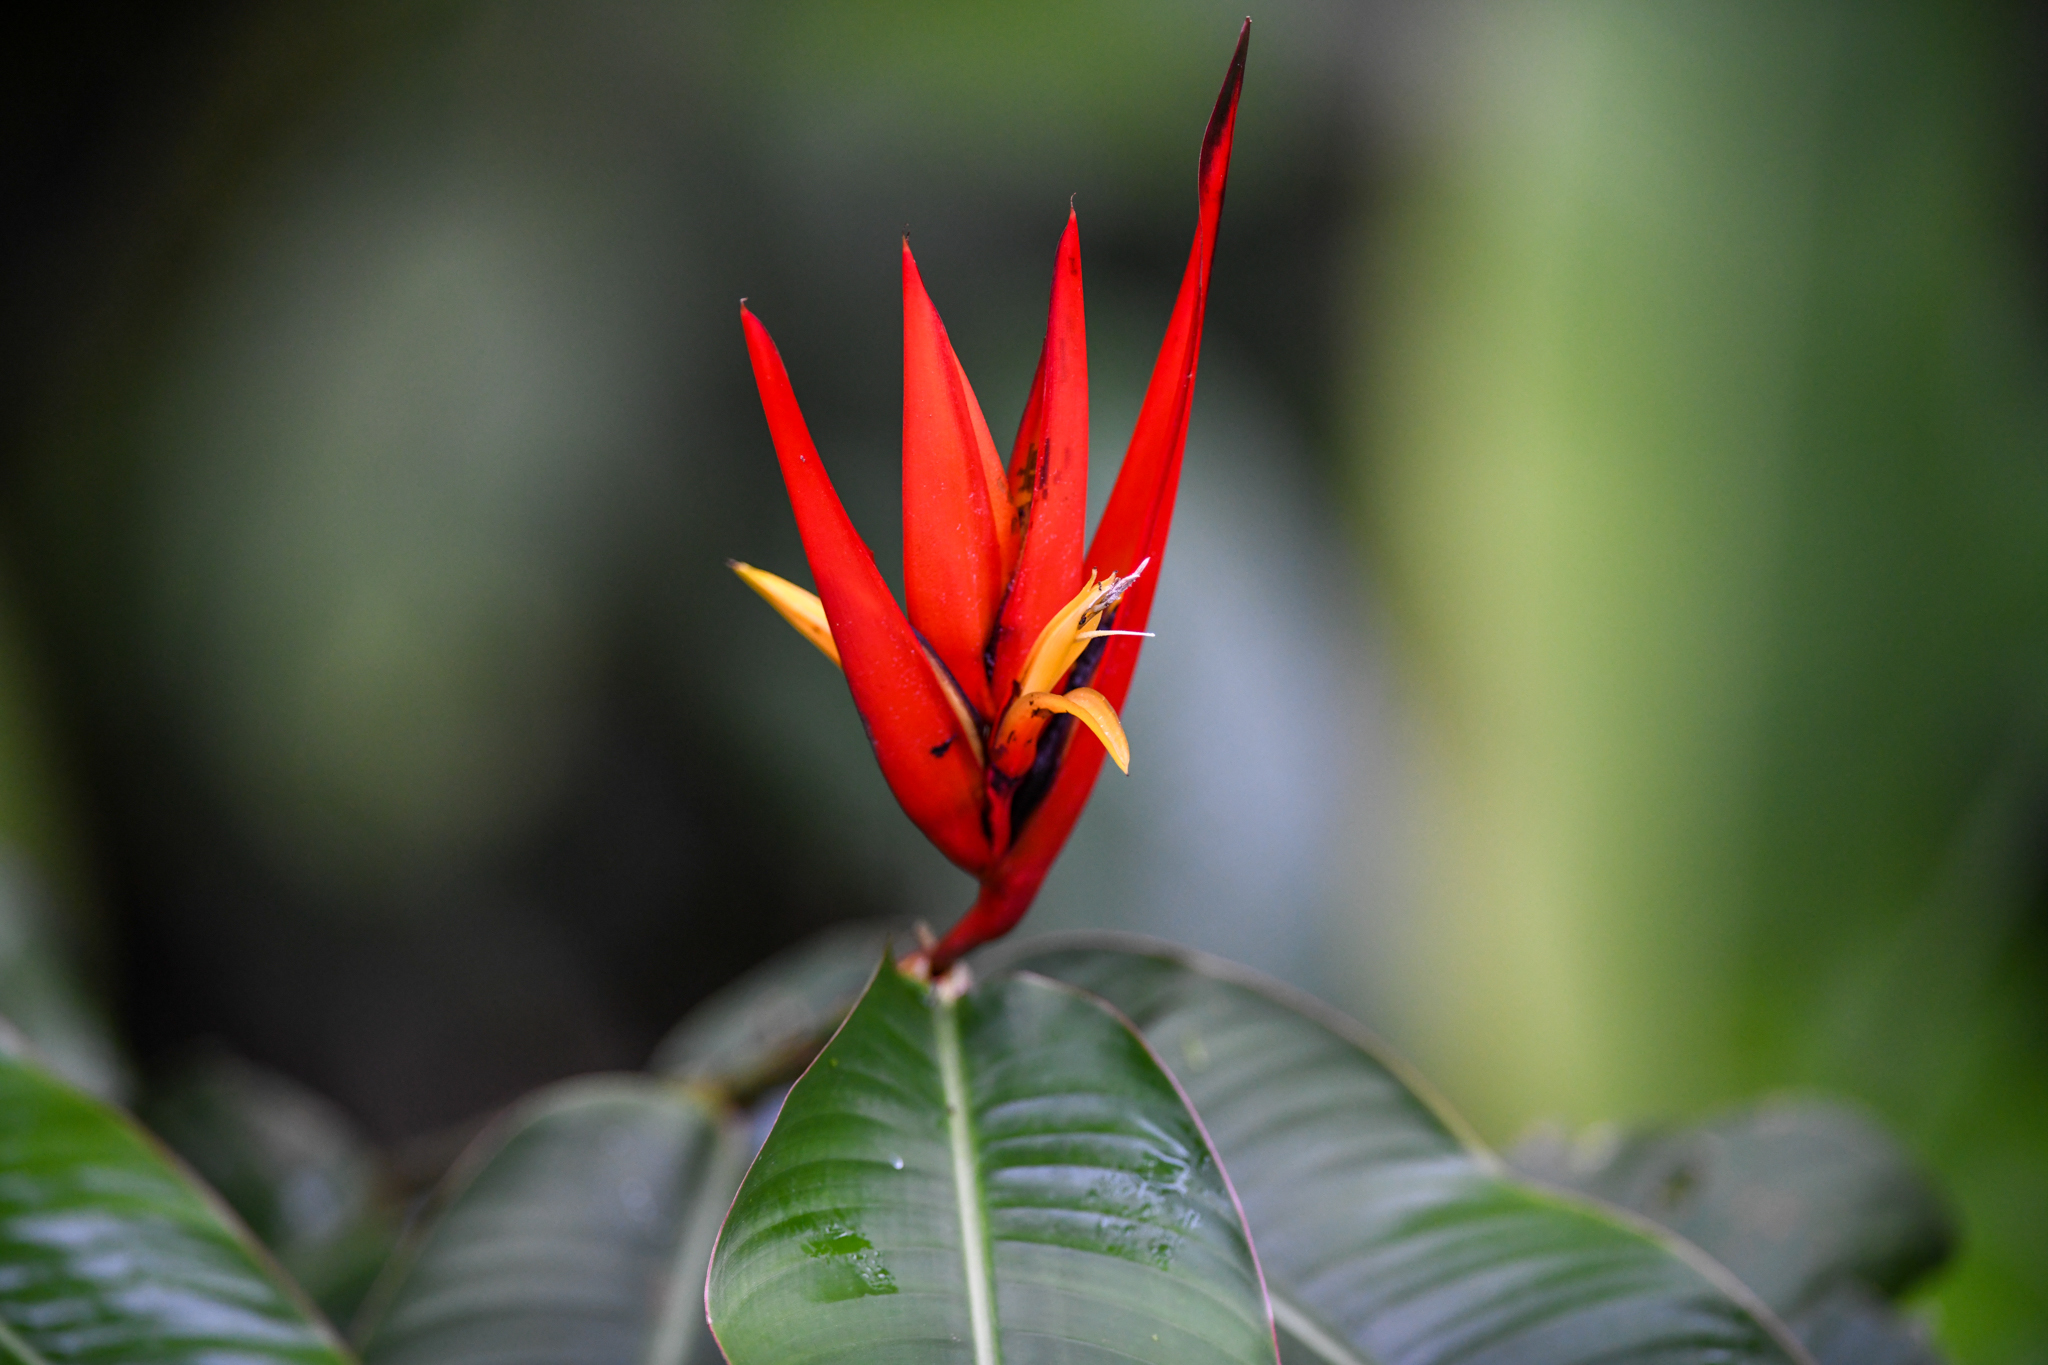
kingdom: Plantae
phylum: Tracheophyta
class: Liliopsida
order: Zingiberales
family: Heliconiaceae
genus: Heliconia
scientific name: Heliconia mathiasiae
